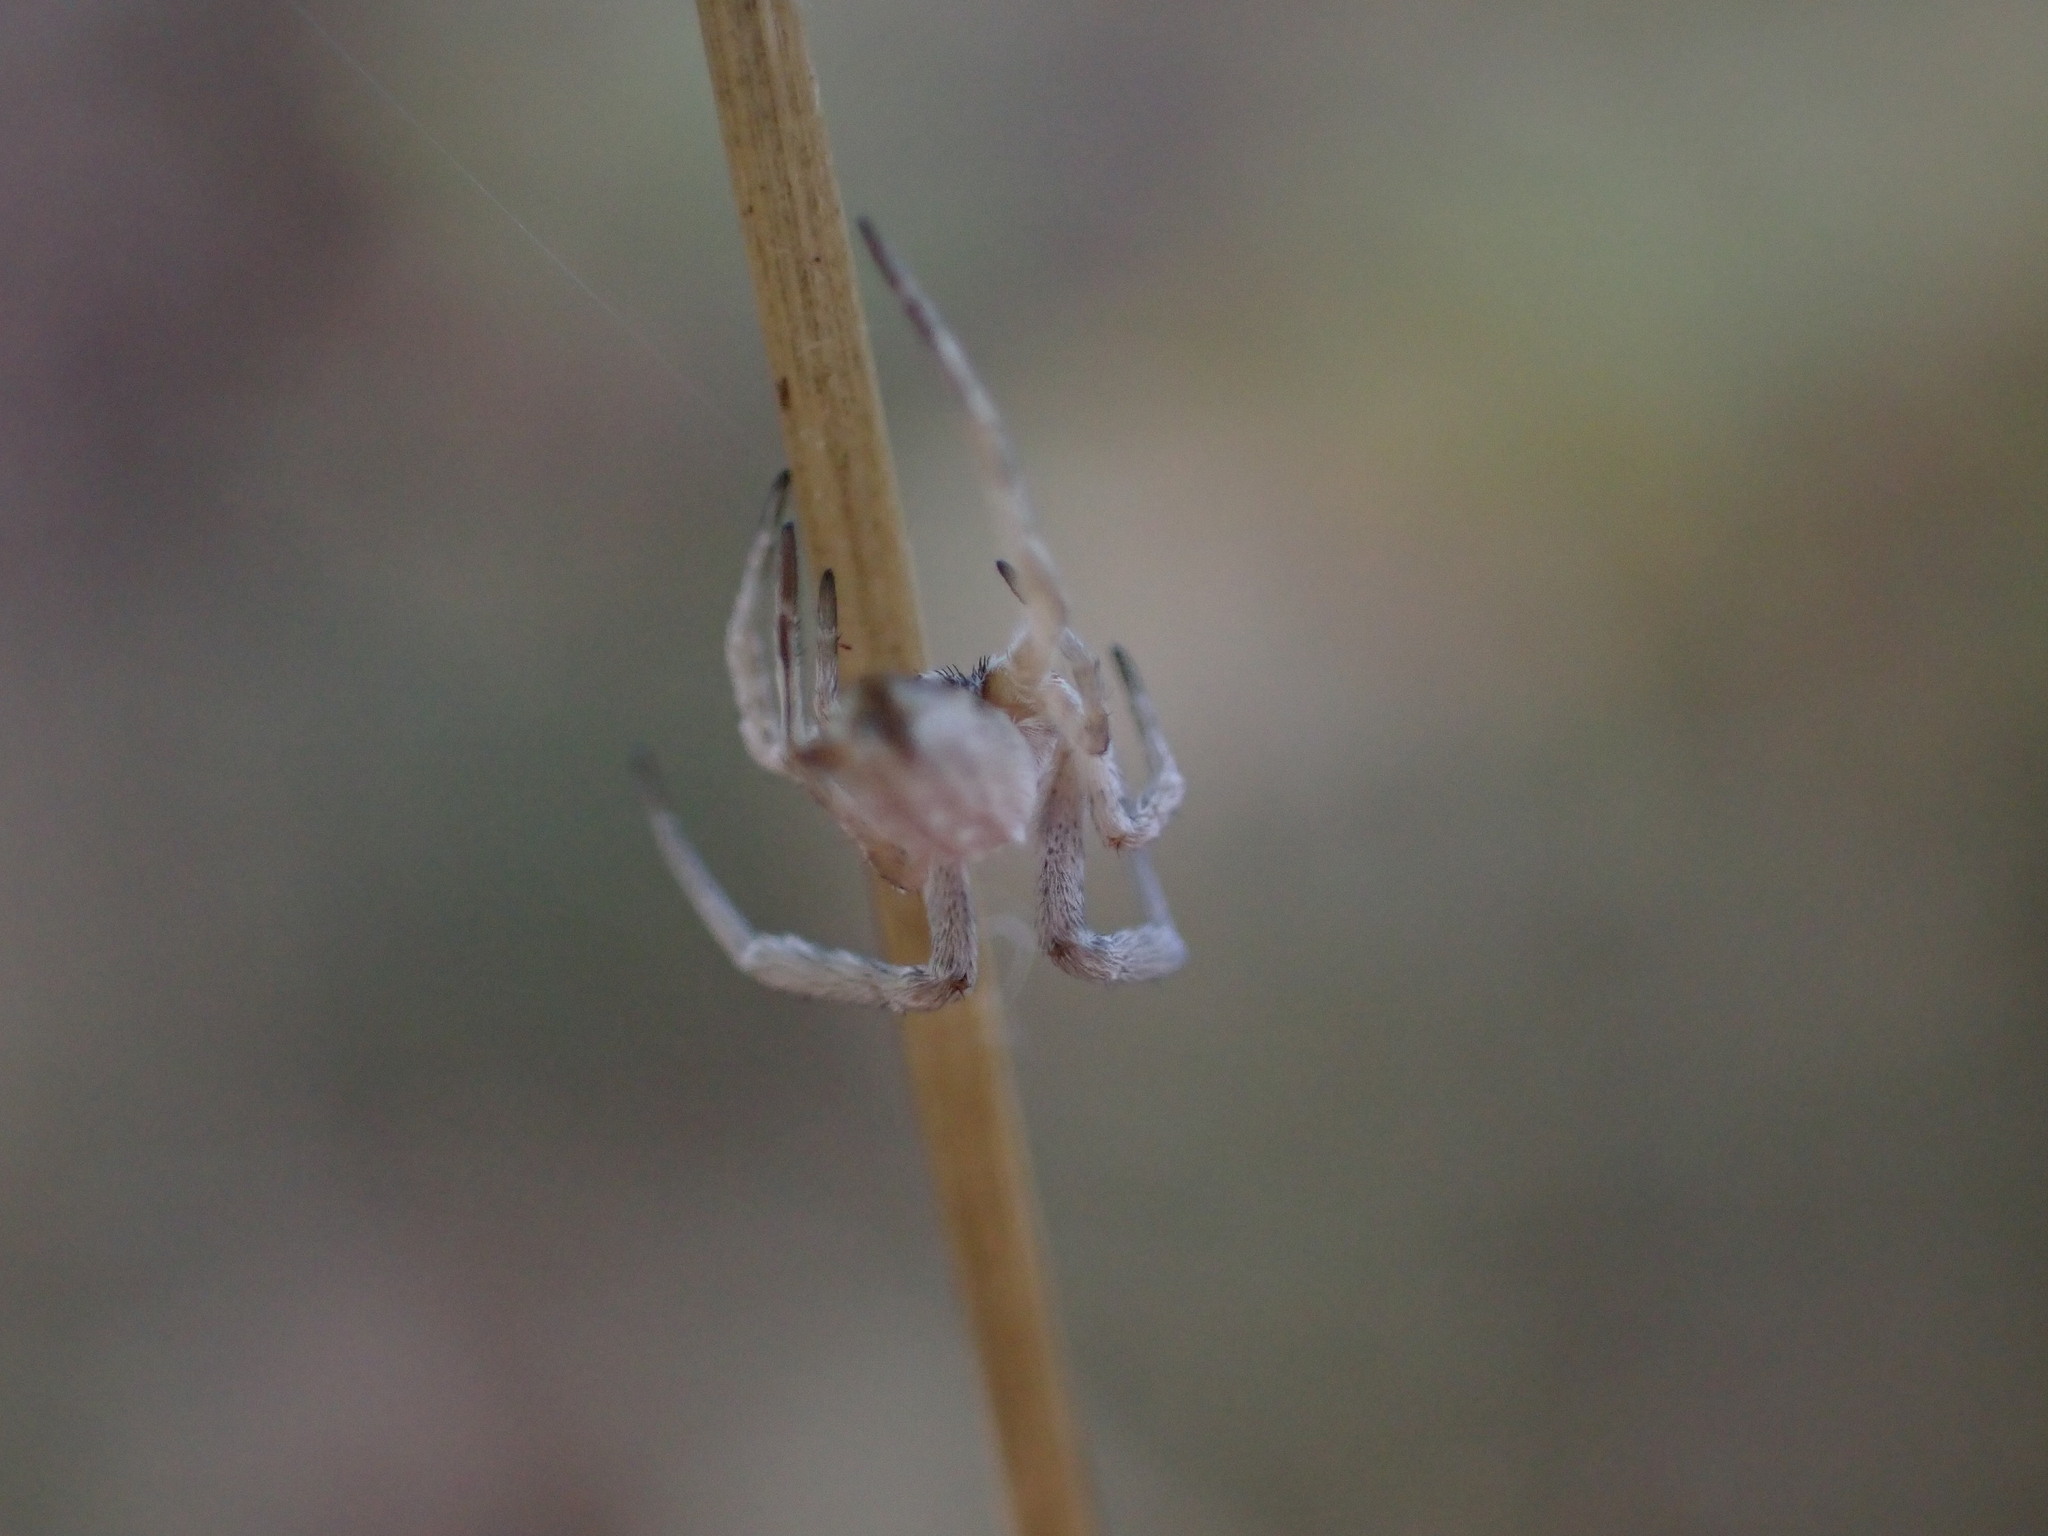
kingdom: Animalia
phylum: Arthropoda
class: Arachnida
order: Araneae
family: Uloboridae
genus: Uloborus
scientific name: Uloborus walckenaerius
